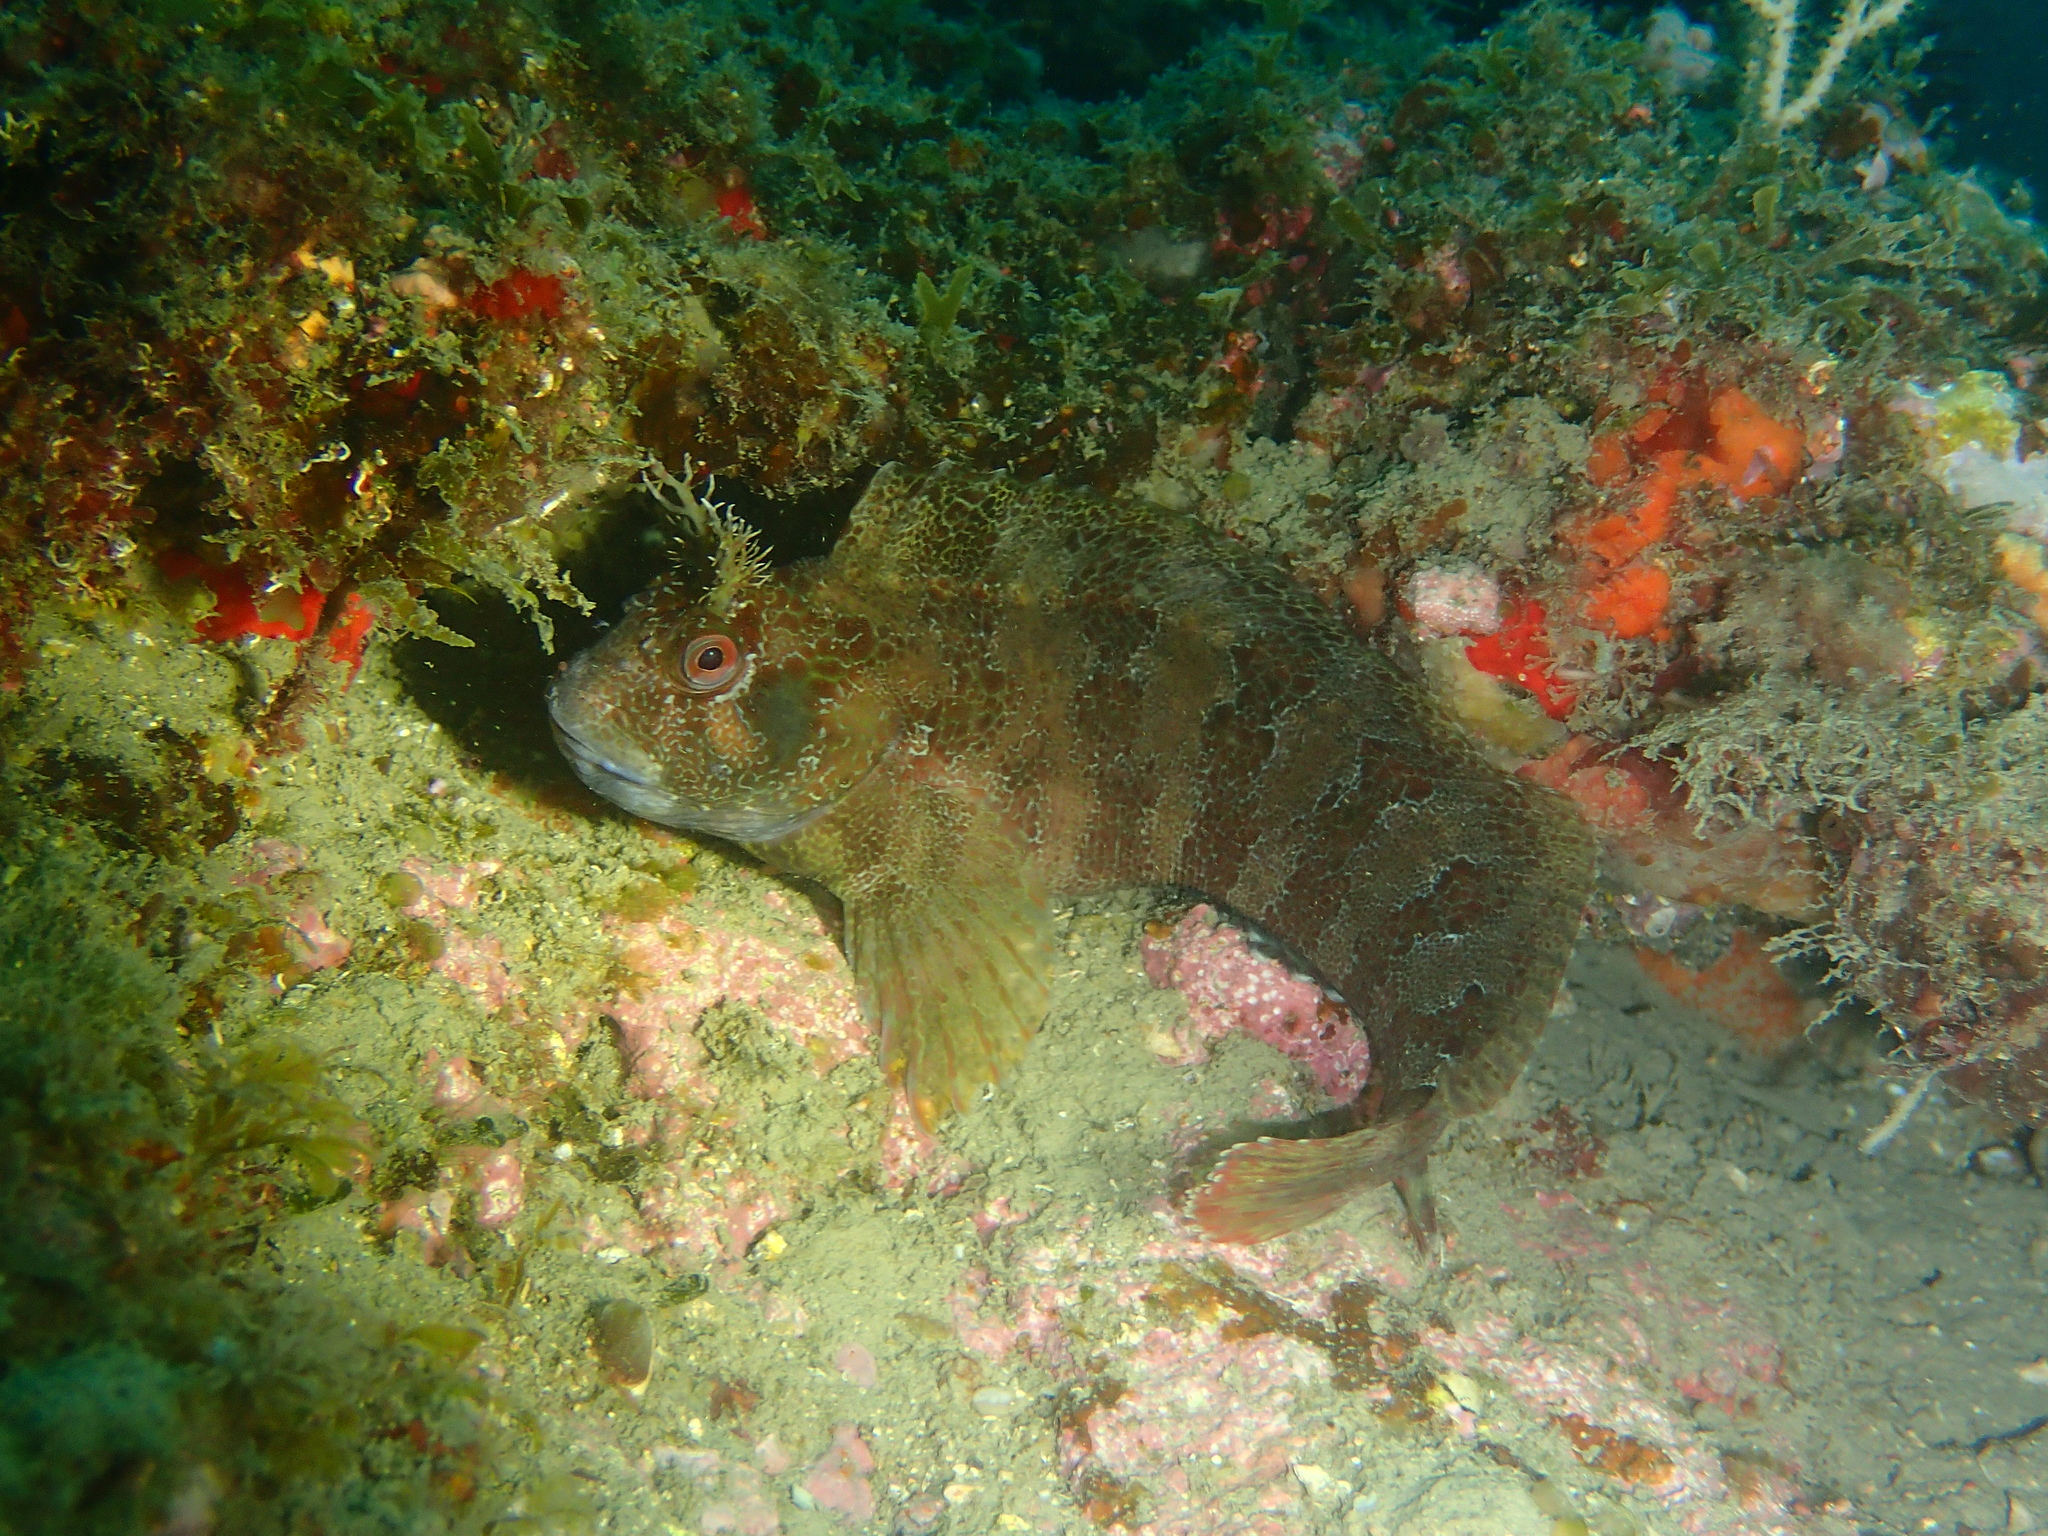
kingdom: Animalia
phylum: Chordata
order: Perciformes
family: Blenniidae
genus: Parablennius
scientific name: Parablennius gattorugine
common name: Tompot blenny
